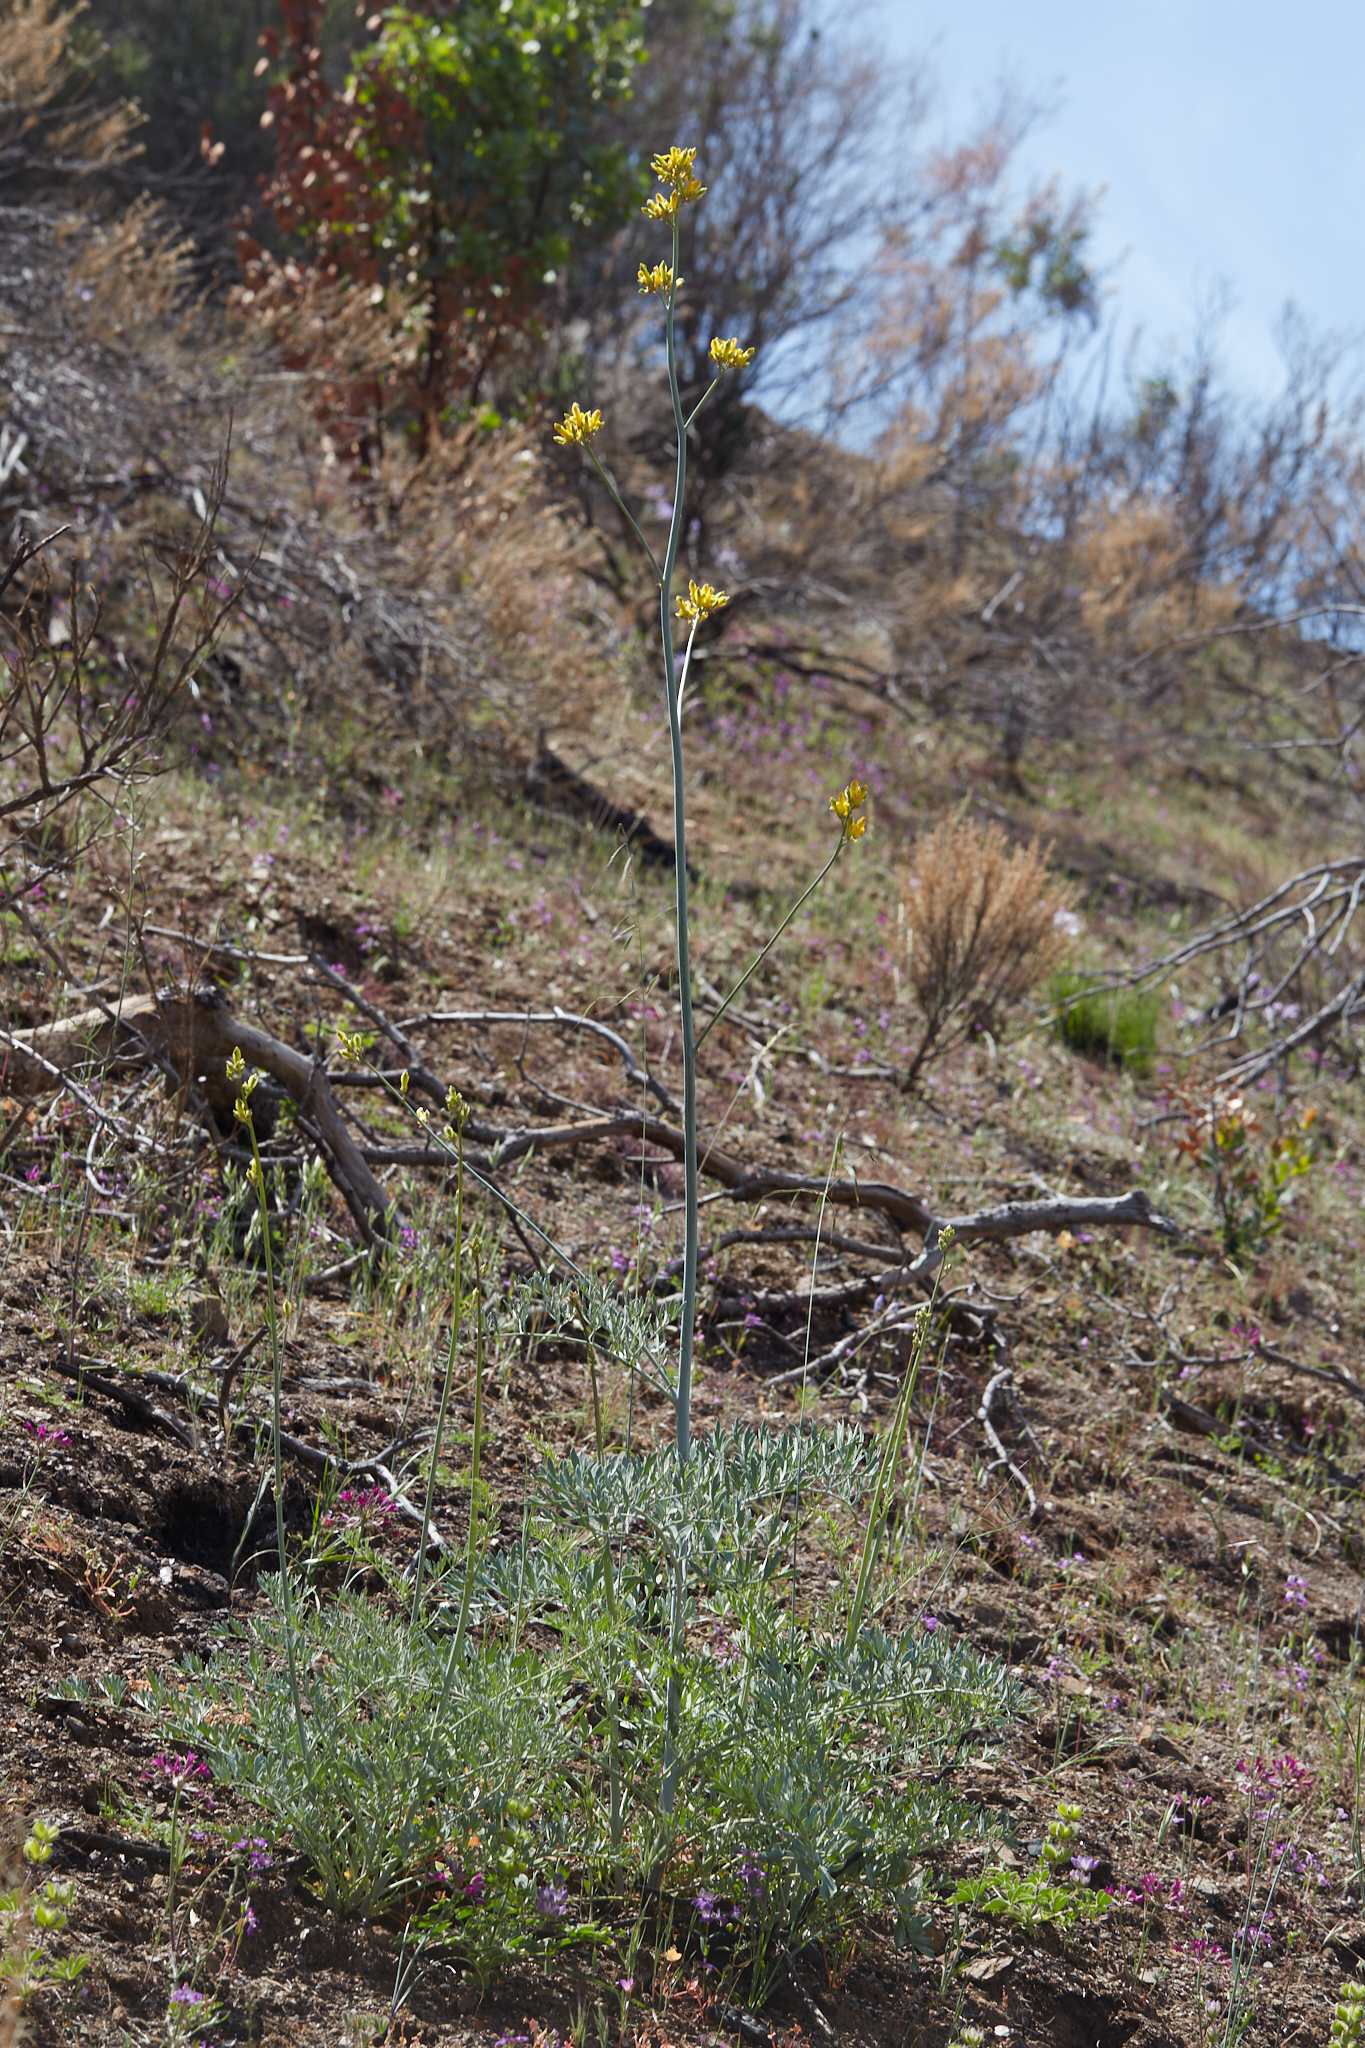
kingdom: Plantae
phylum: Tracheophyta
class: Magnoliopsida
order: Ranunculales
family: Papaveraceae
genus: Ehrendorferia
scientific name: Ehrendorferia chrysantha
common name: Golden eardrops
